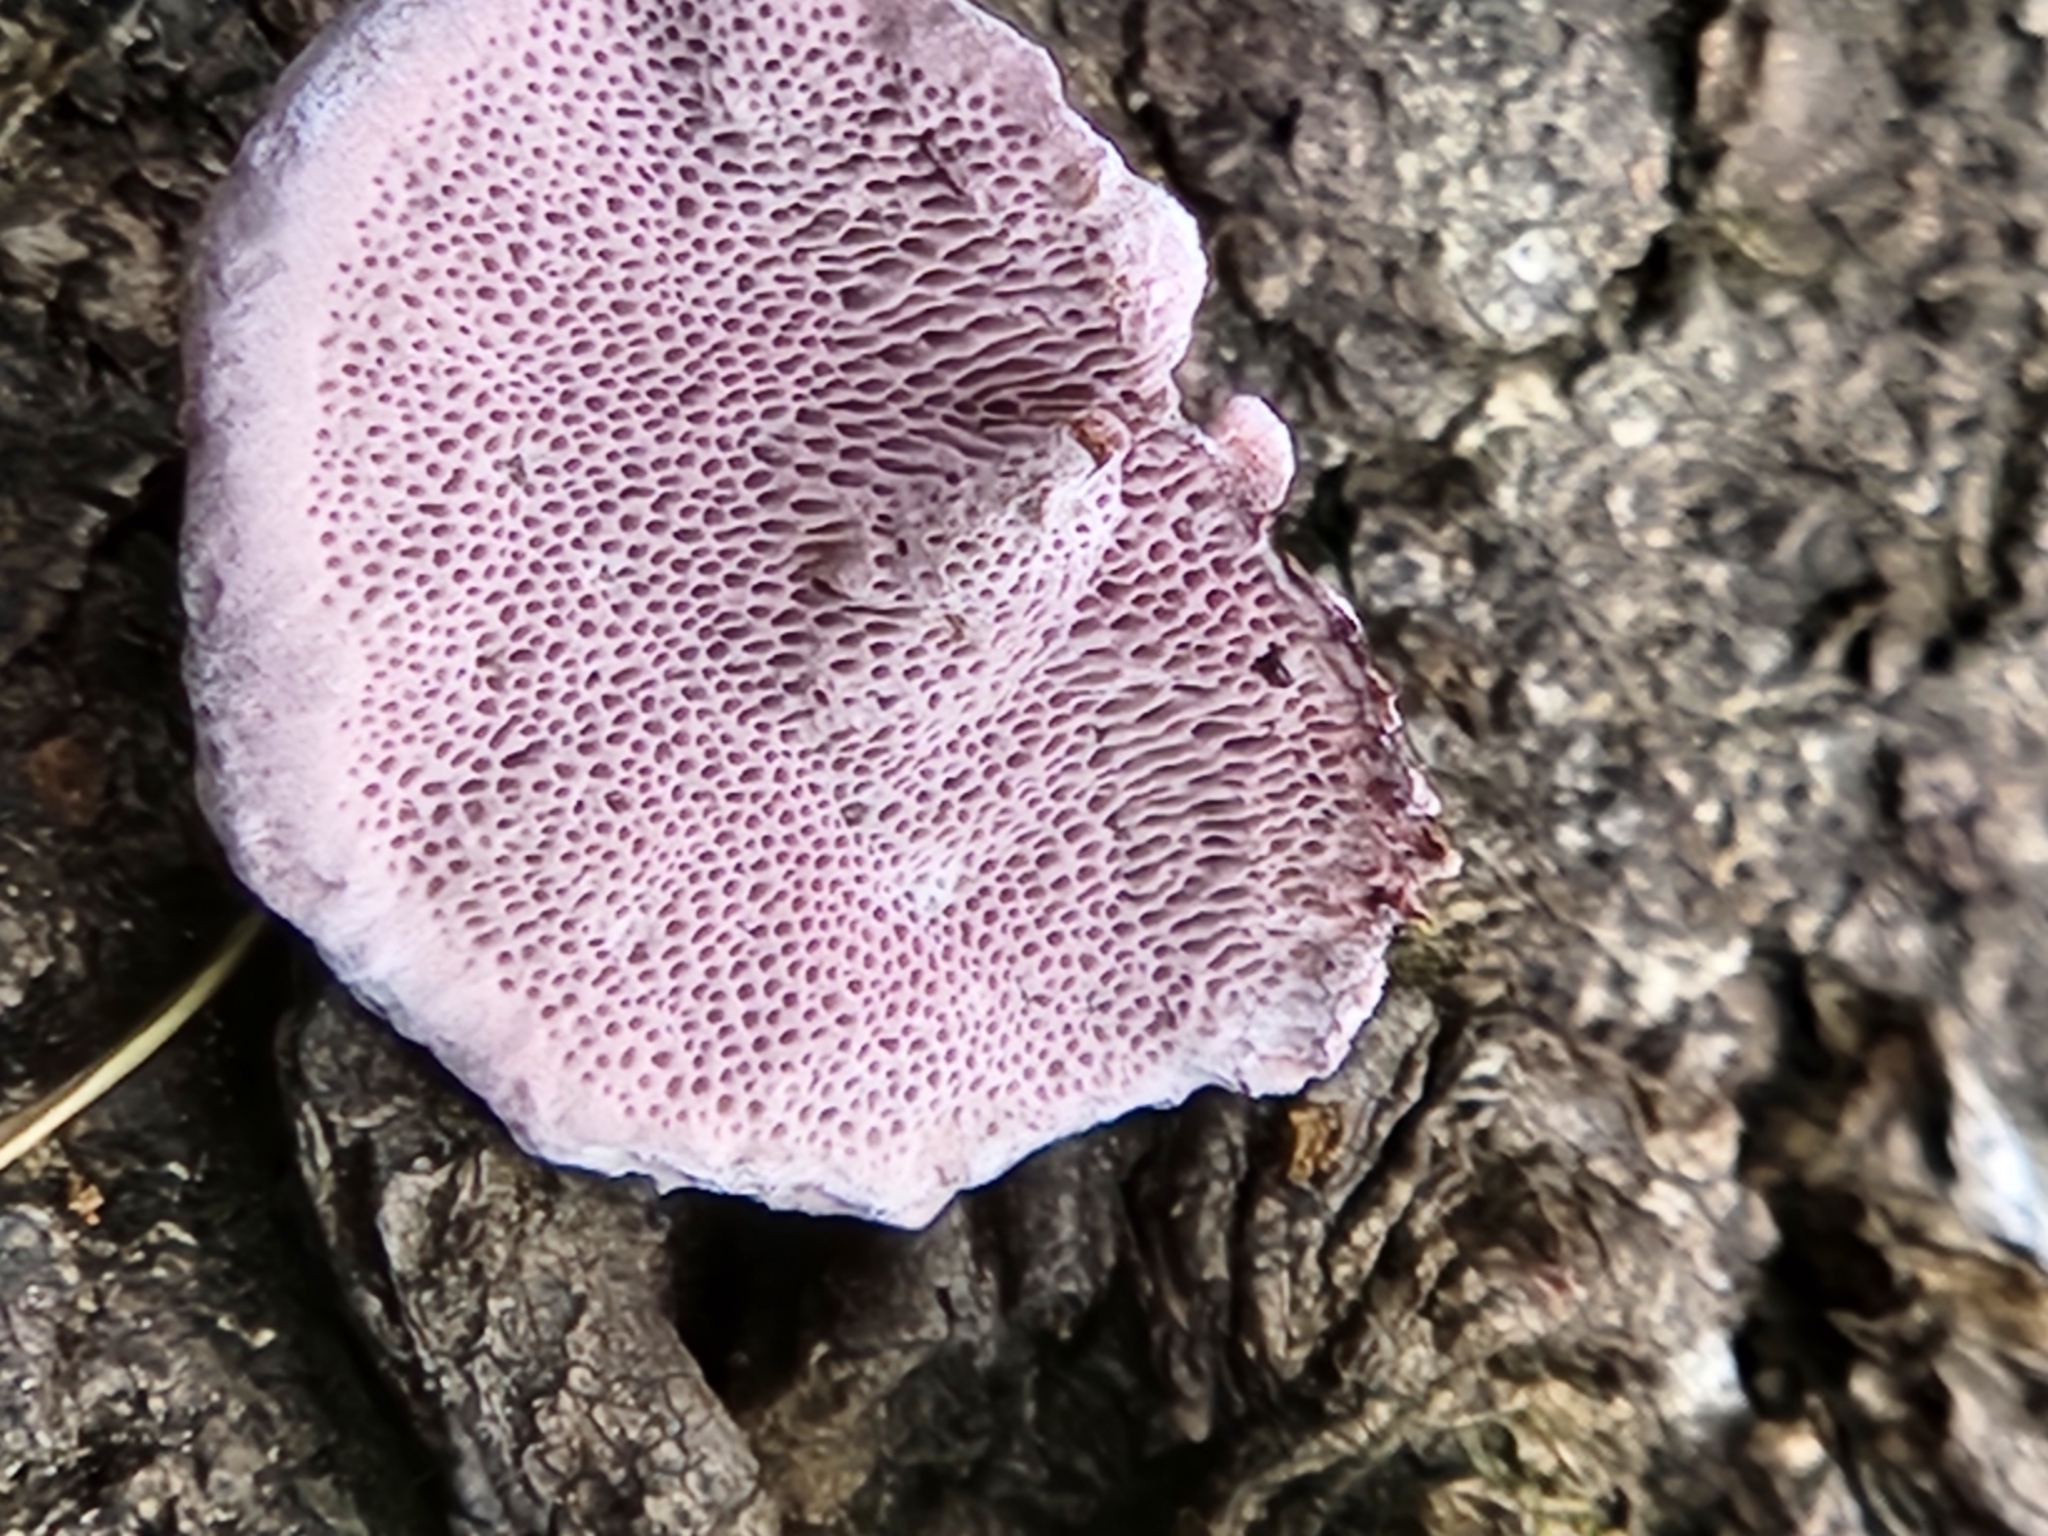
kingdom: Fungi
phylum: Basidiomycota
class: Agaricomycetes
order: Polyporales
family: Fomitopsidaceae
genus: Rhodofomes
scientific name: Rhodofomes cajanderi
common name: Rosy conk
